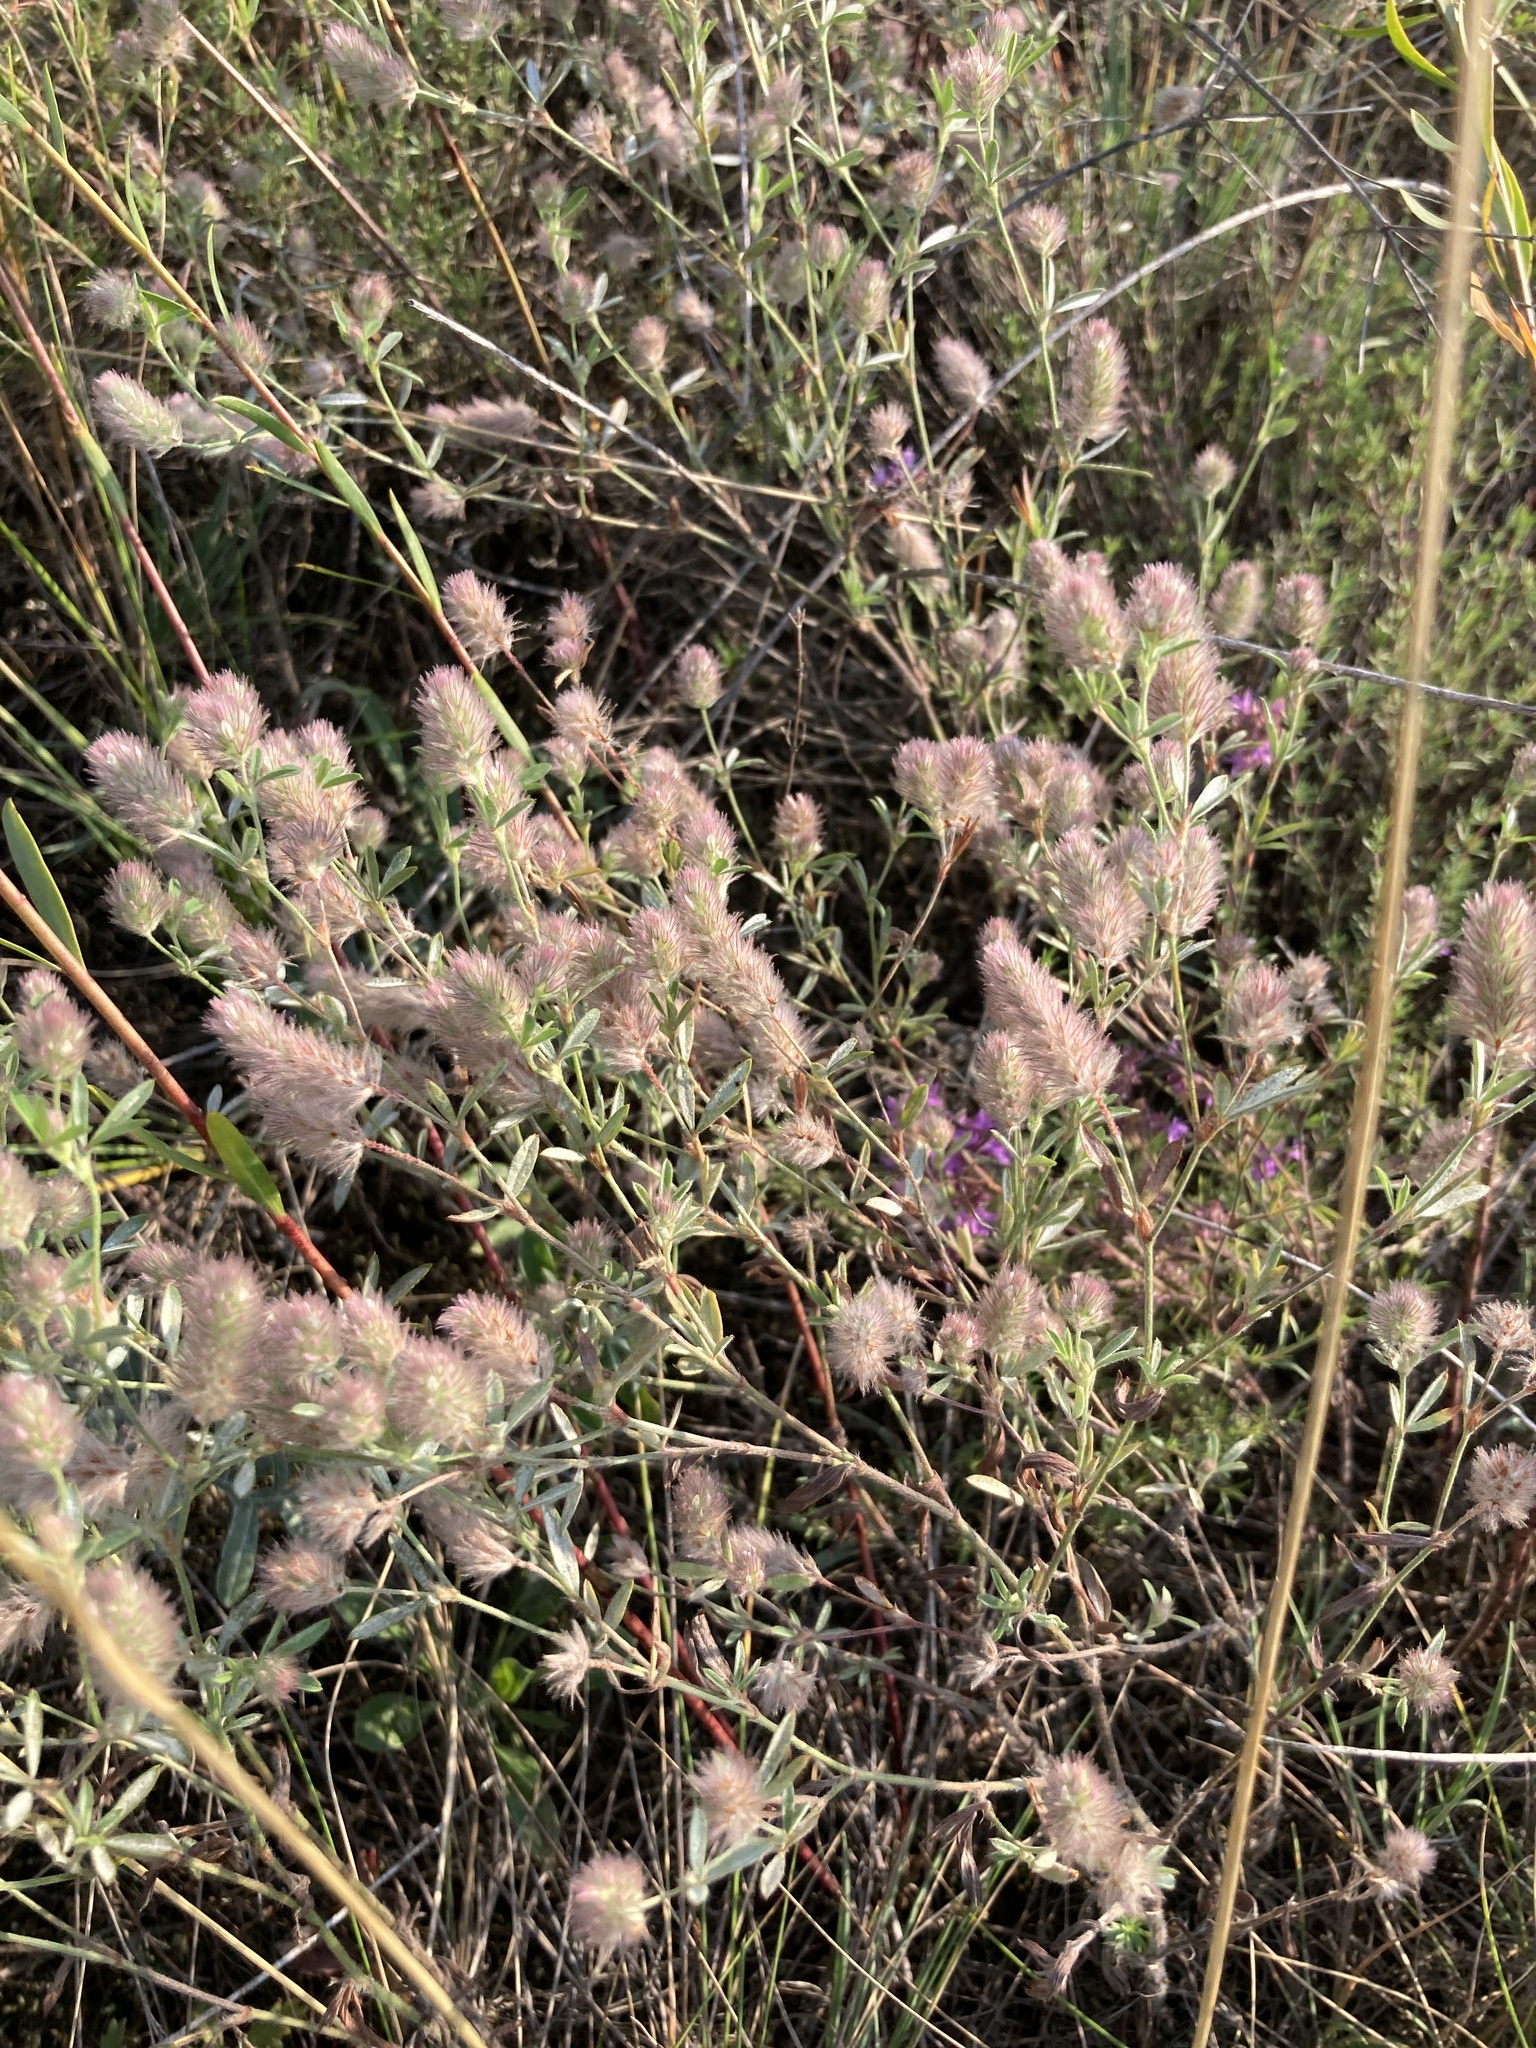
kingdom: Plantae
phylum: Tracheophyta
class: Magnoliopsida
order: Fabales
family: Fabaceae
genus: Trifolium
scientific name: Trifolium arvense
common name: Hare's-foot clover
